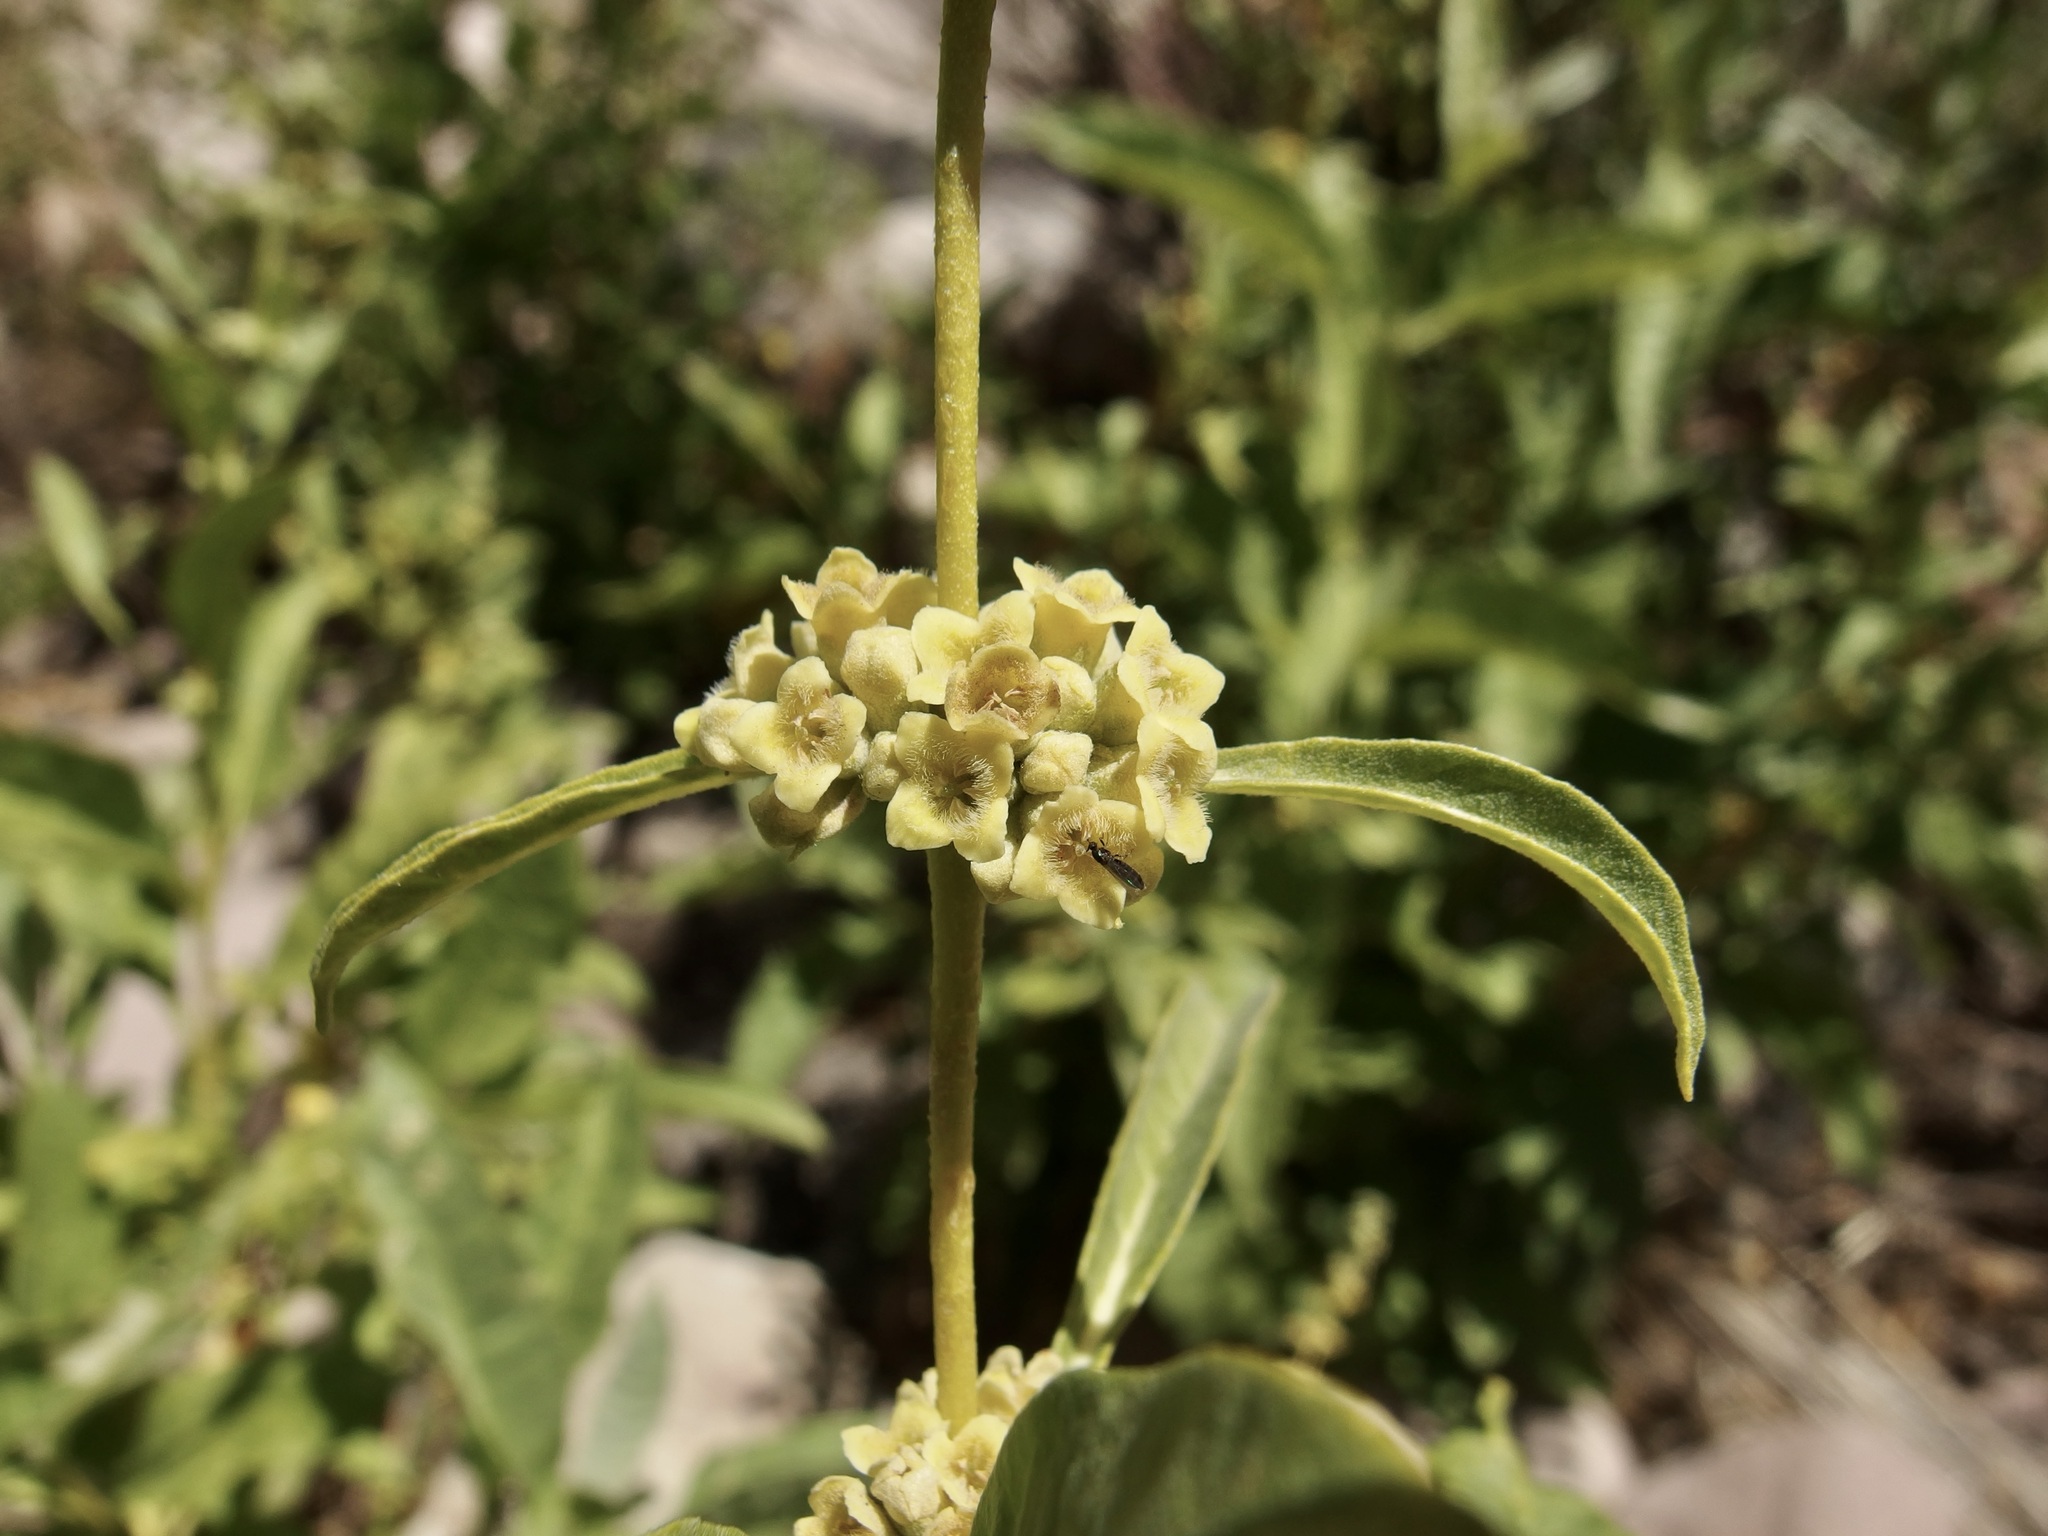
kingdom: Plantae
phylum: Tracheophyta
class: Magnoliopsida
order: Lamiales
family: Scrophulariaceae
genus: Buddleja
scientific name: Buddleja sessiliflora
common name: Rio grande butterfly-bush
